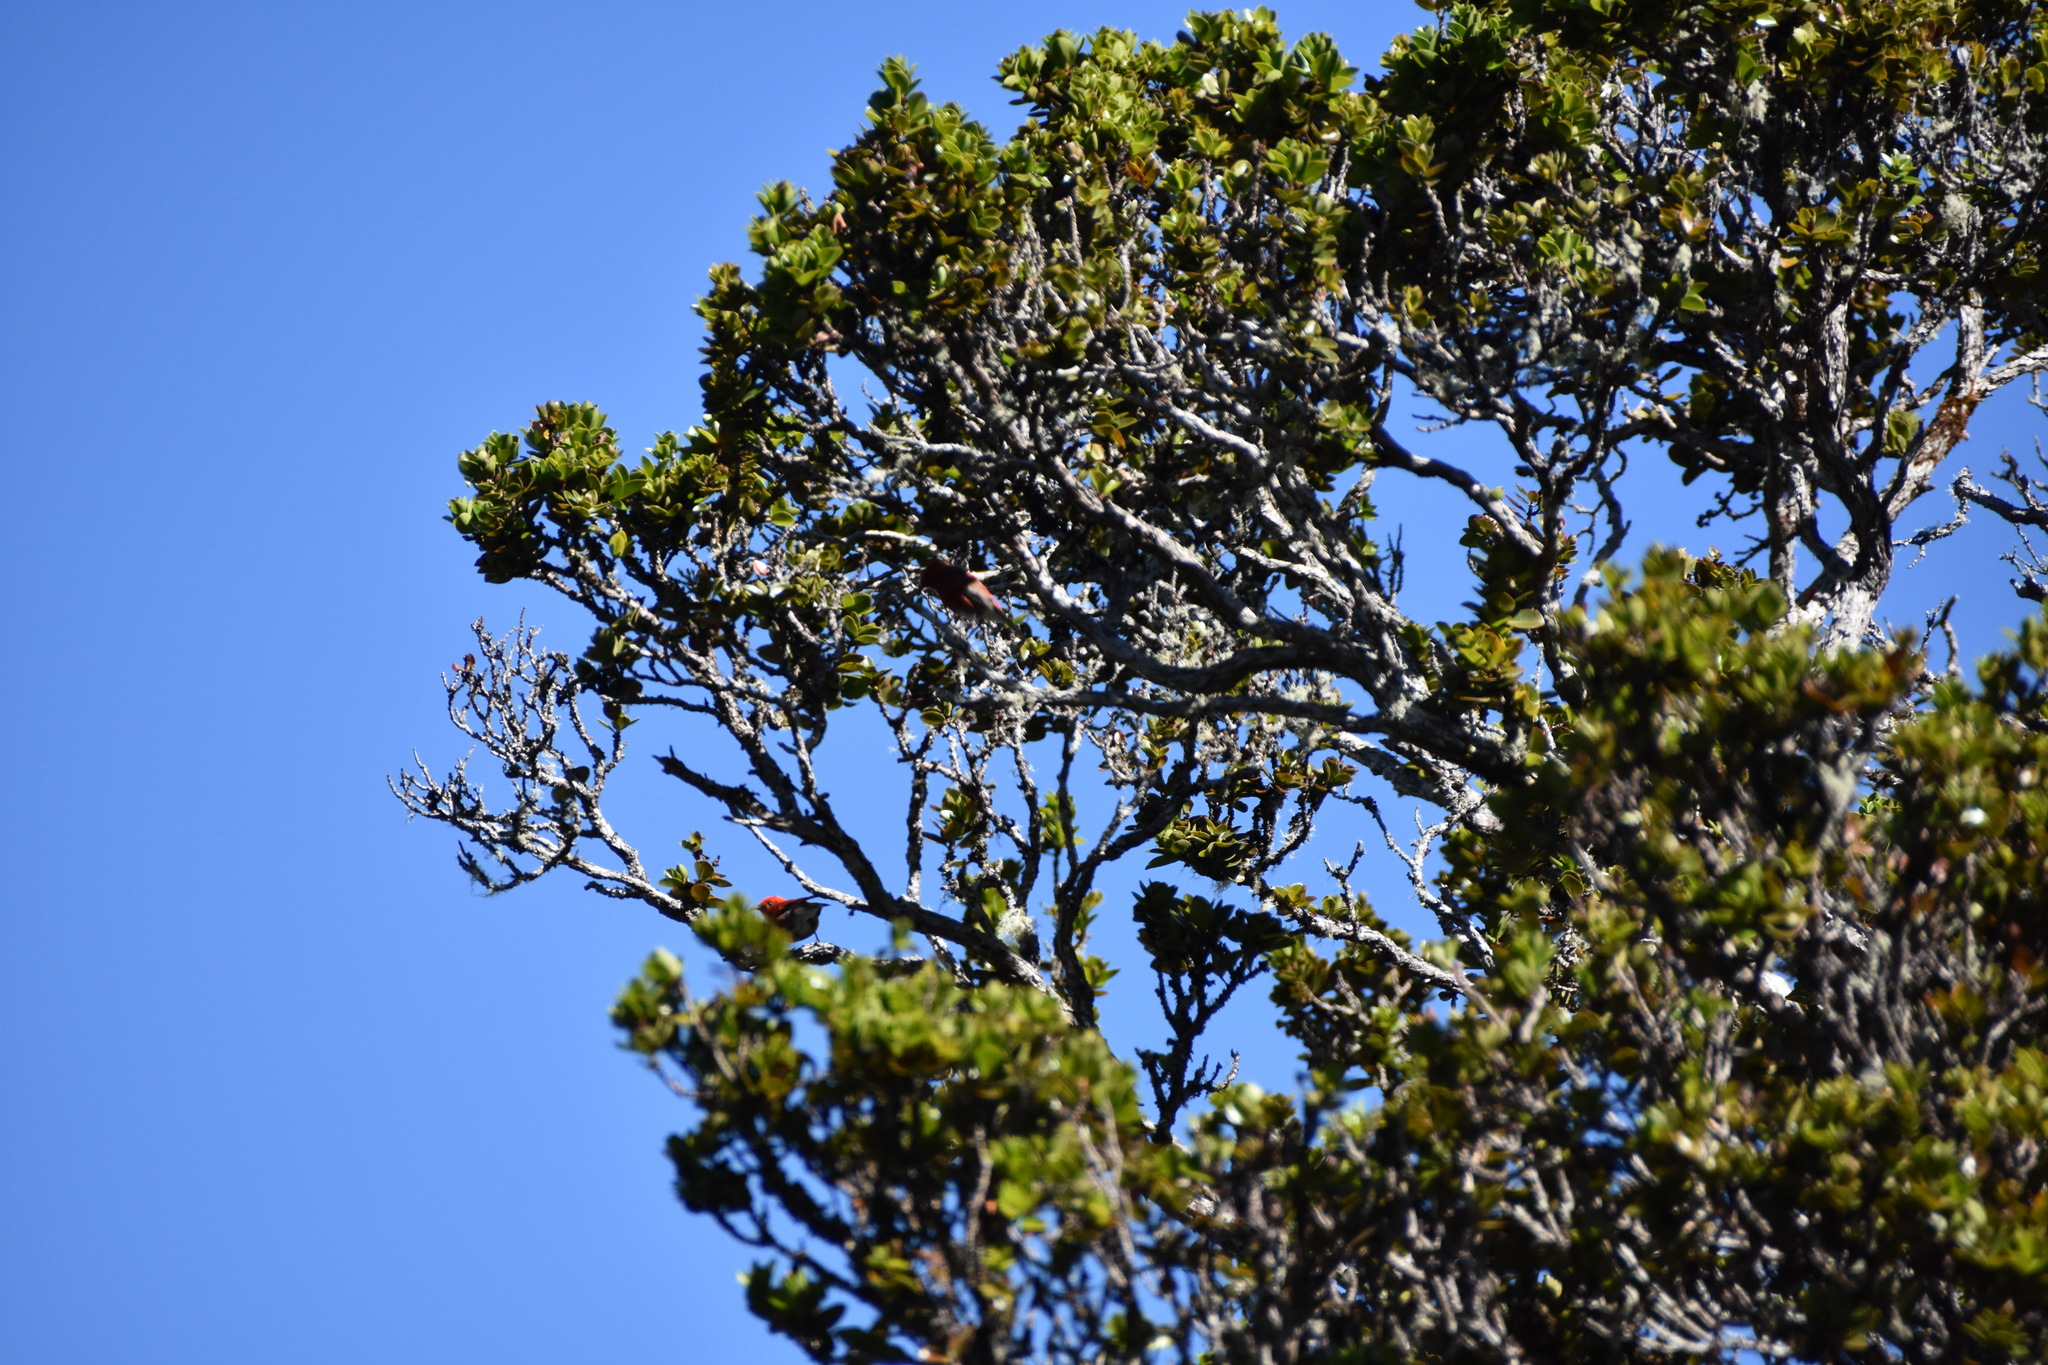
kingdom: Animalia
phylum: Chordata
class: Aves
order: Passeriformes
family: Fringillidae
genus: Himatione
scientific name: Himatione sanguinea
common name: Apapane
